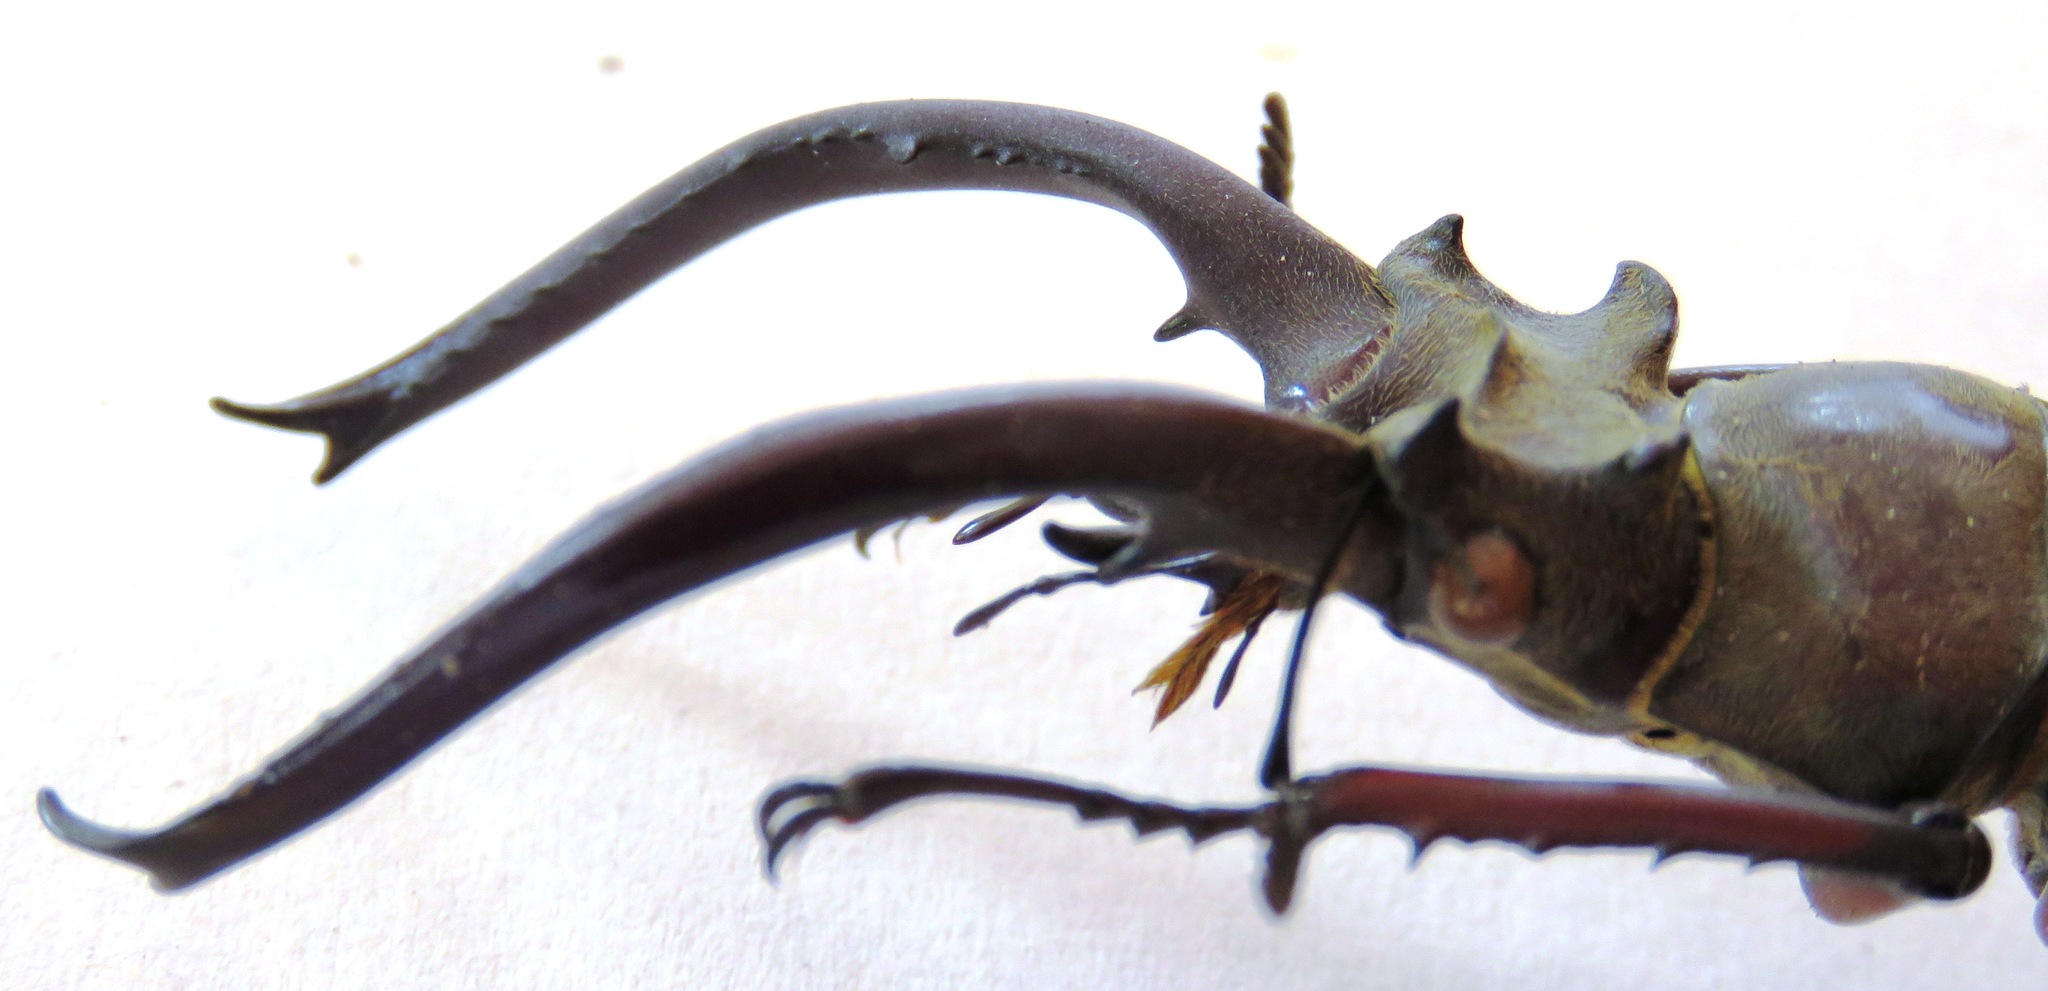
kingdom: Animalia
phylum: Arthropoda
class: Insecta
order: Coleoptera
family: Lucanidae
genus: Lucanus
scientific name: Lucanus planeti
